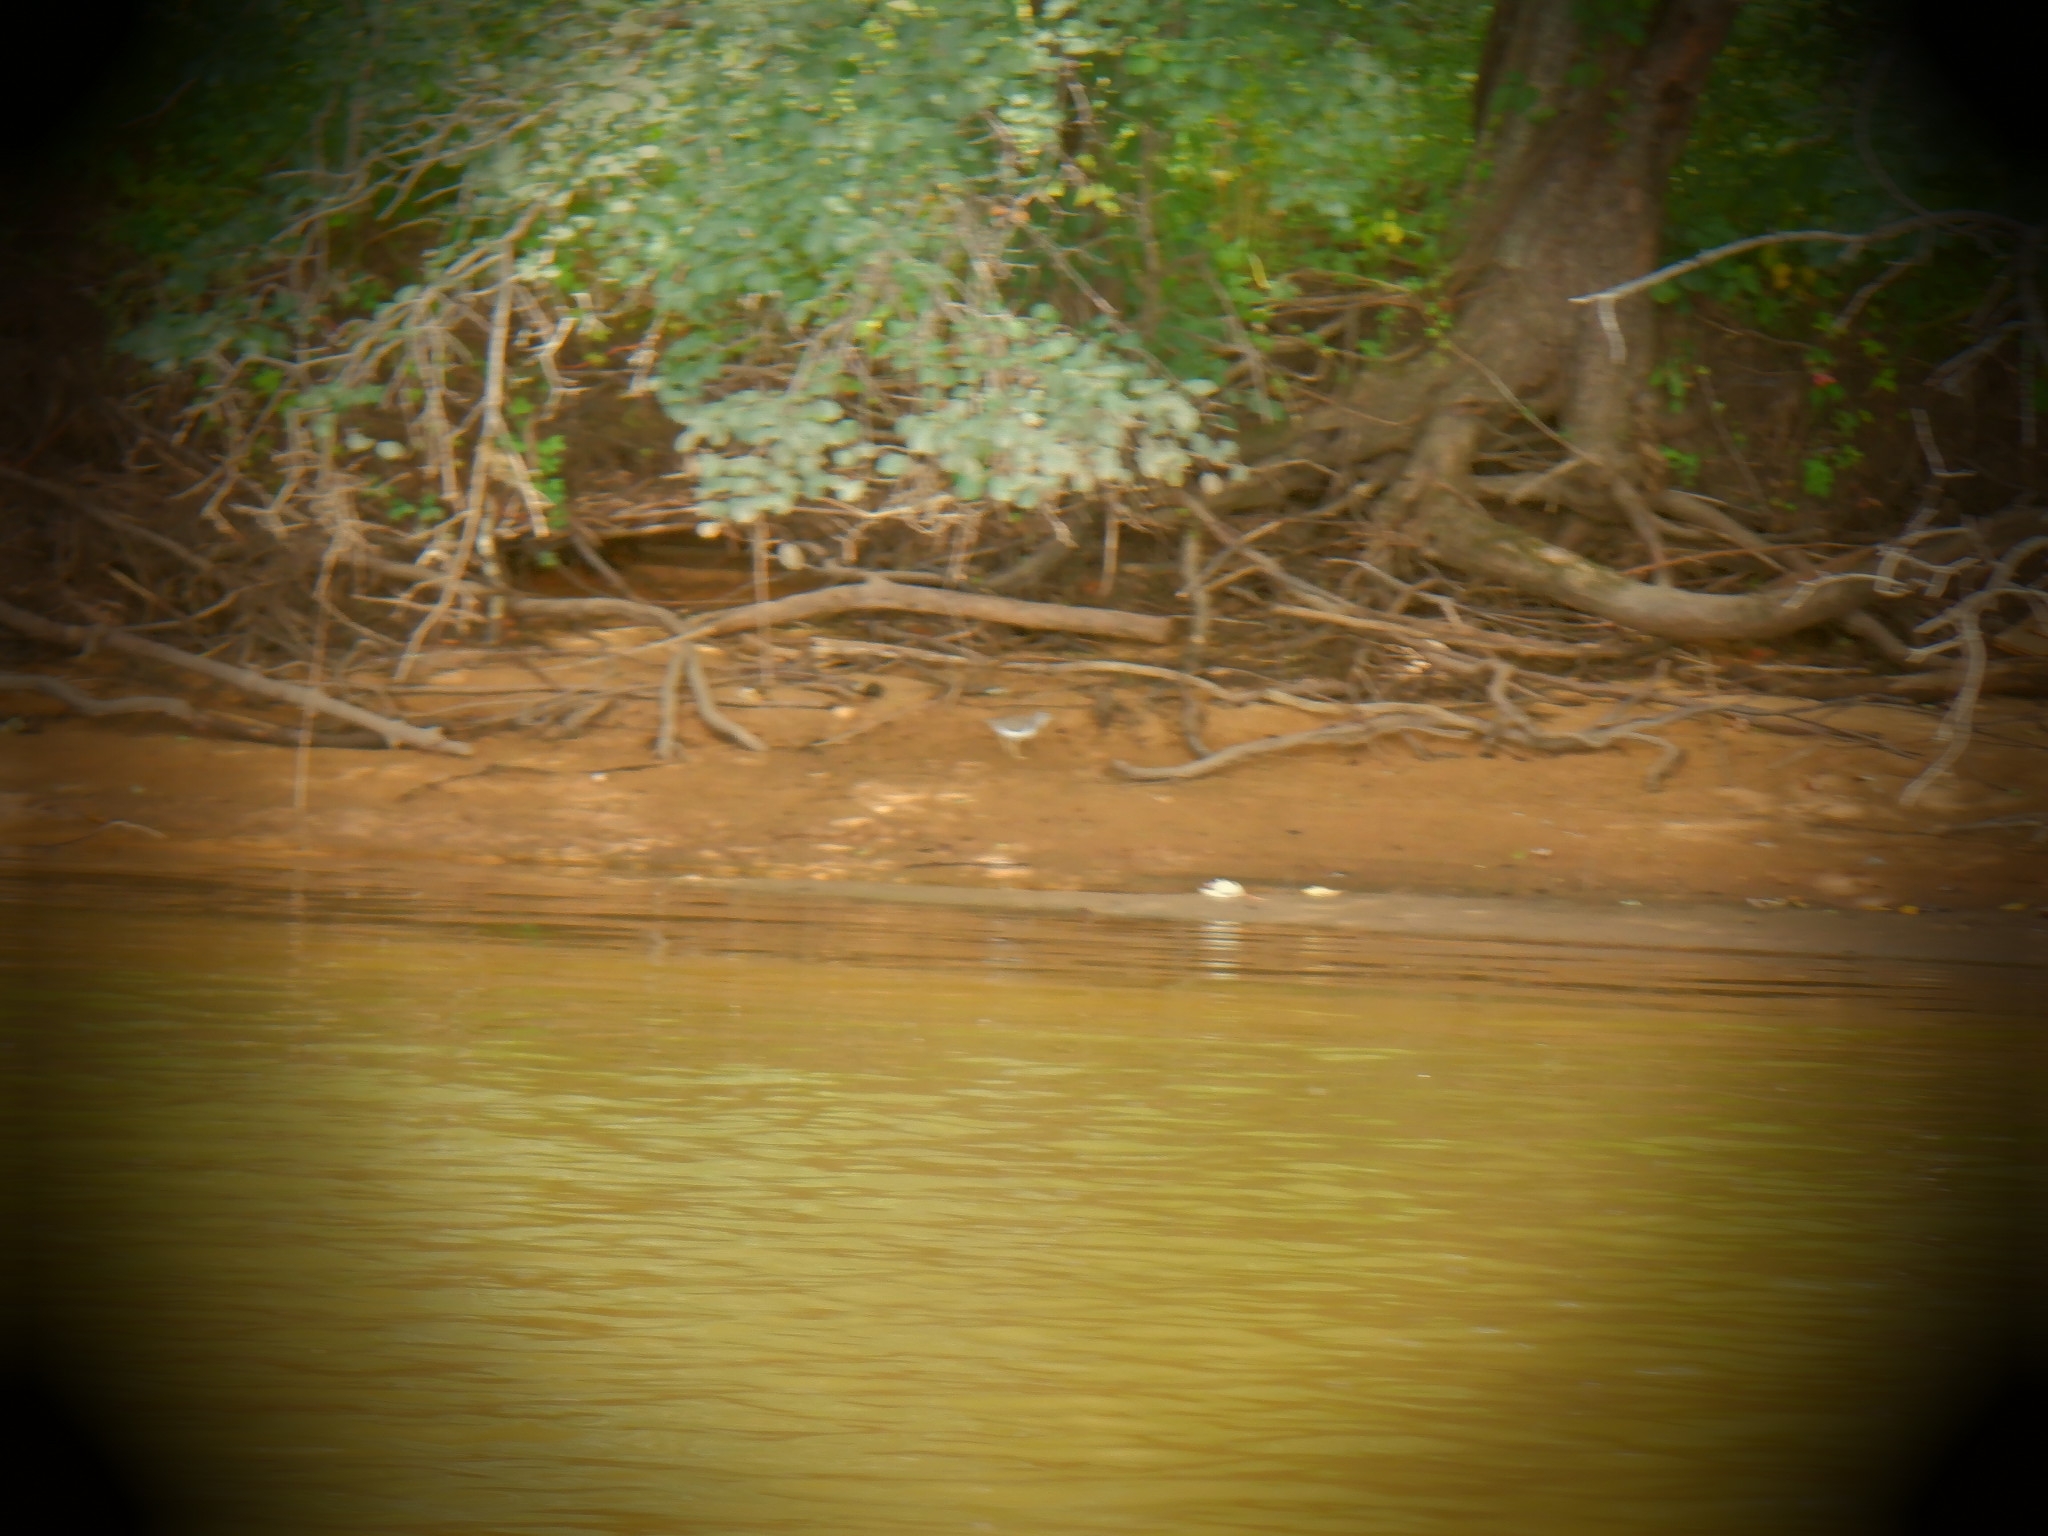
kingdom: Animalia
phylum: Chordata
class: Aves
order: Charadriiformes
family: Scolopacidae
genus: Actitis
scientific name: Actitis macularius
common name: Spotted sandpiper
